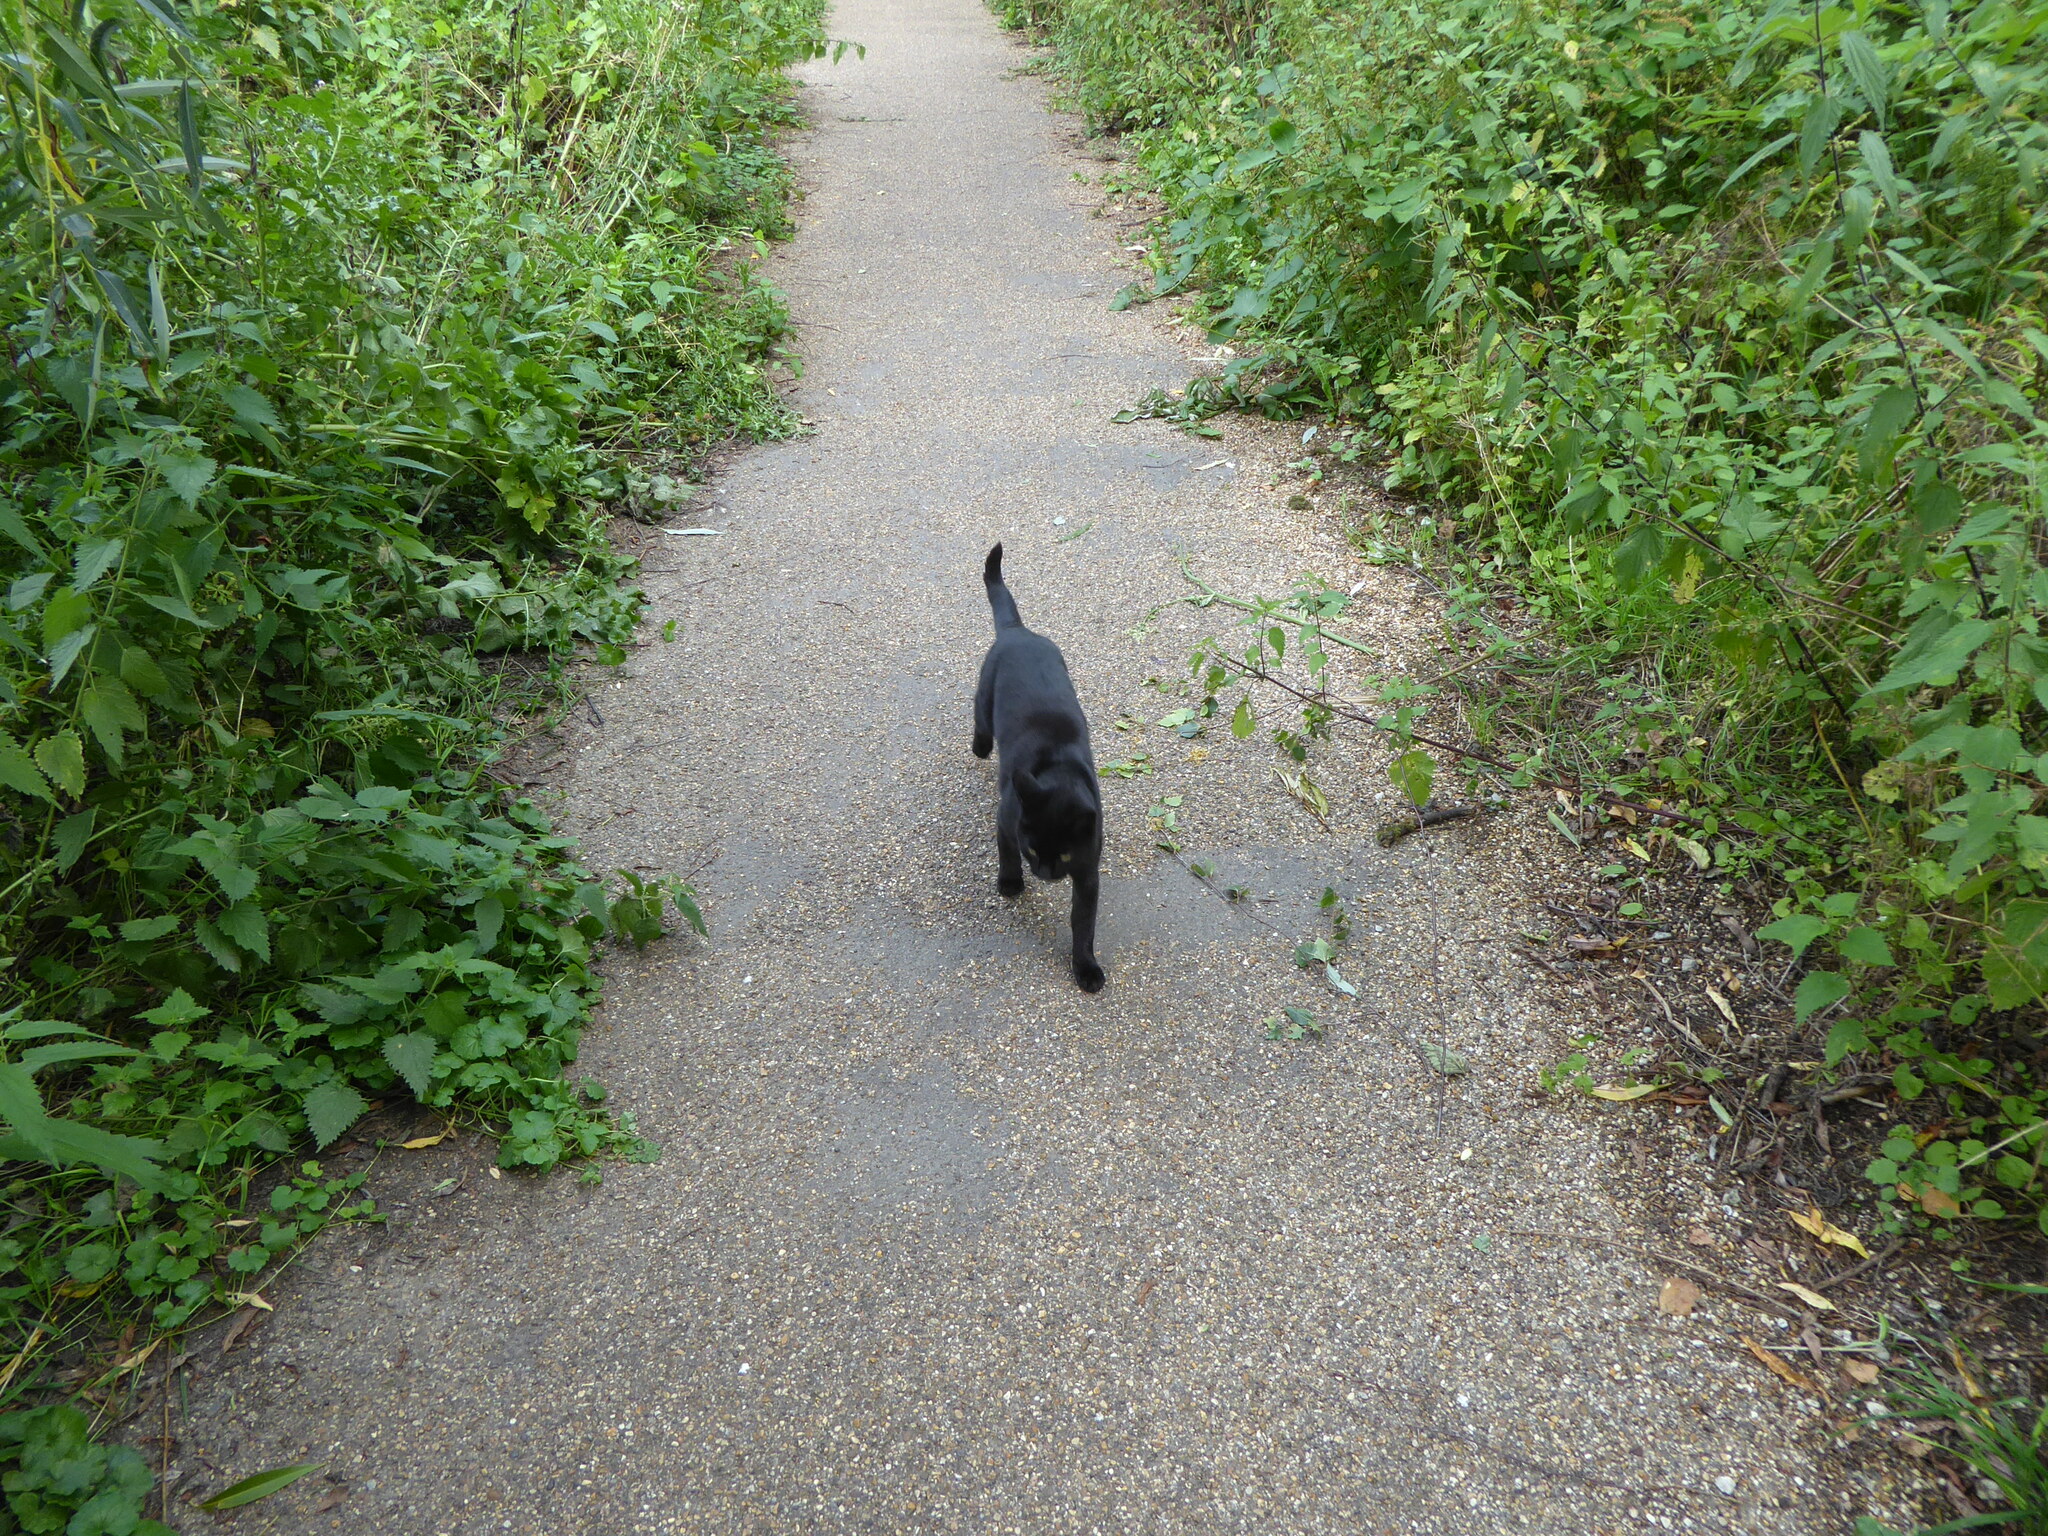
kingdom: Animalia
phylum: Chordata
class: Mammalia
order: Carnivora
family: Felidae
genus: Felis
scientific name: Felis catus
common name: Domestic cat
